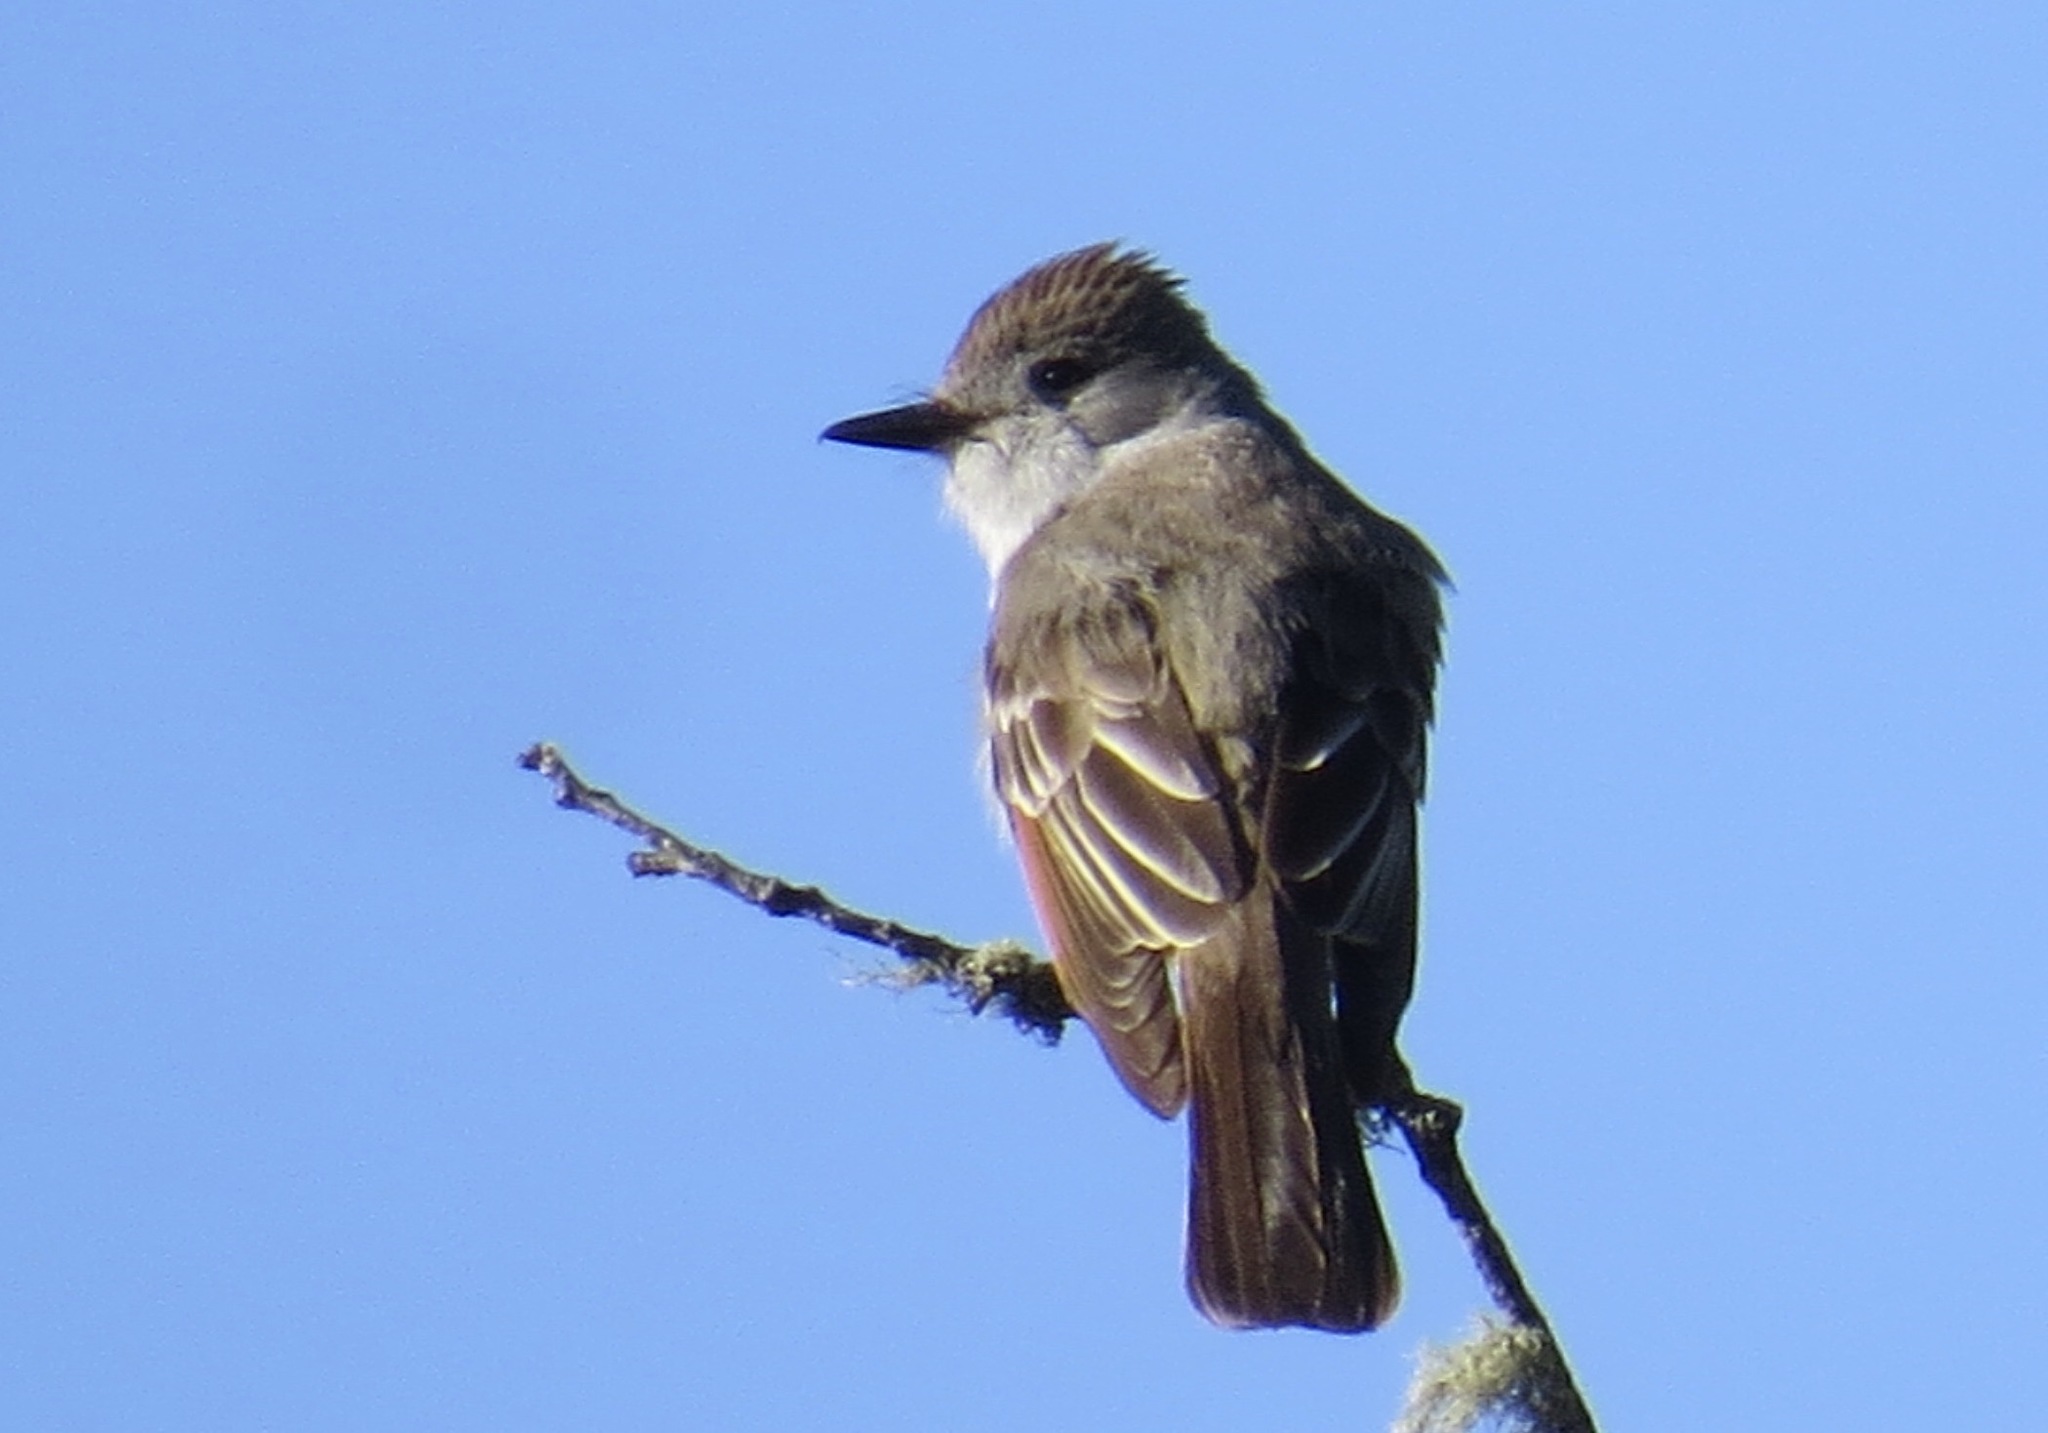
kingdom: Animalia
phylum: Chordata
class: Aves
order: Passeriformes
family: Tyrannidae
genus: Myiarchus
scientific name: Myiarchus cinerascens
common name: Ash-throated flycatcher
